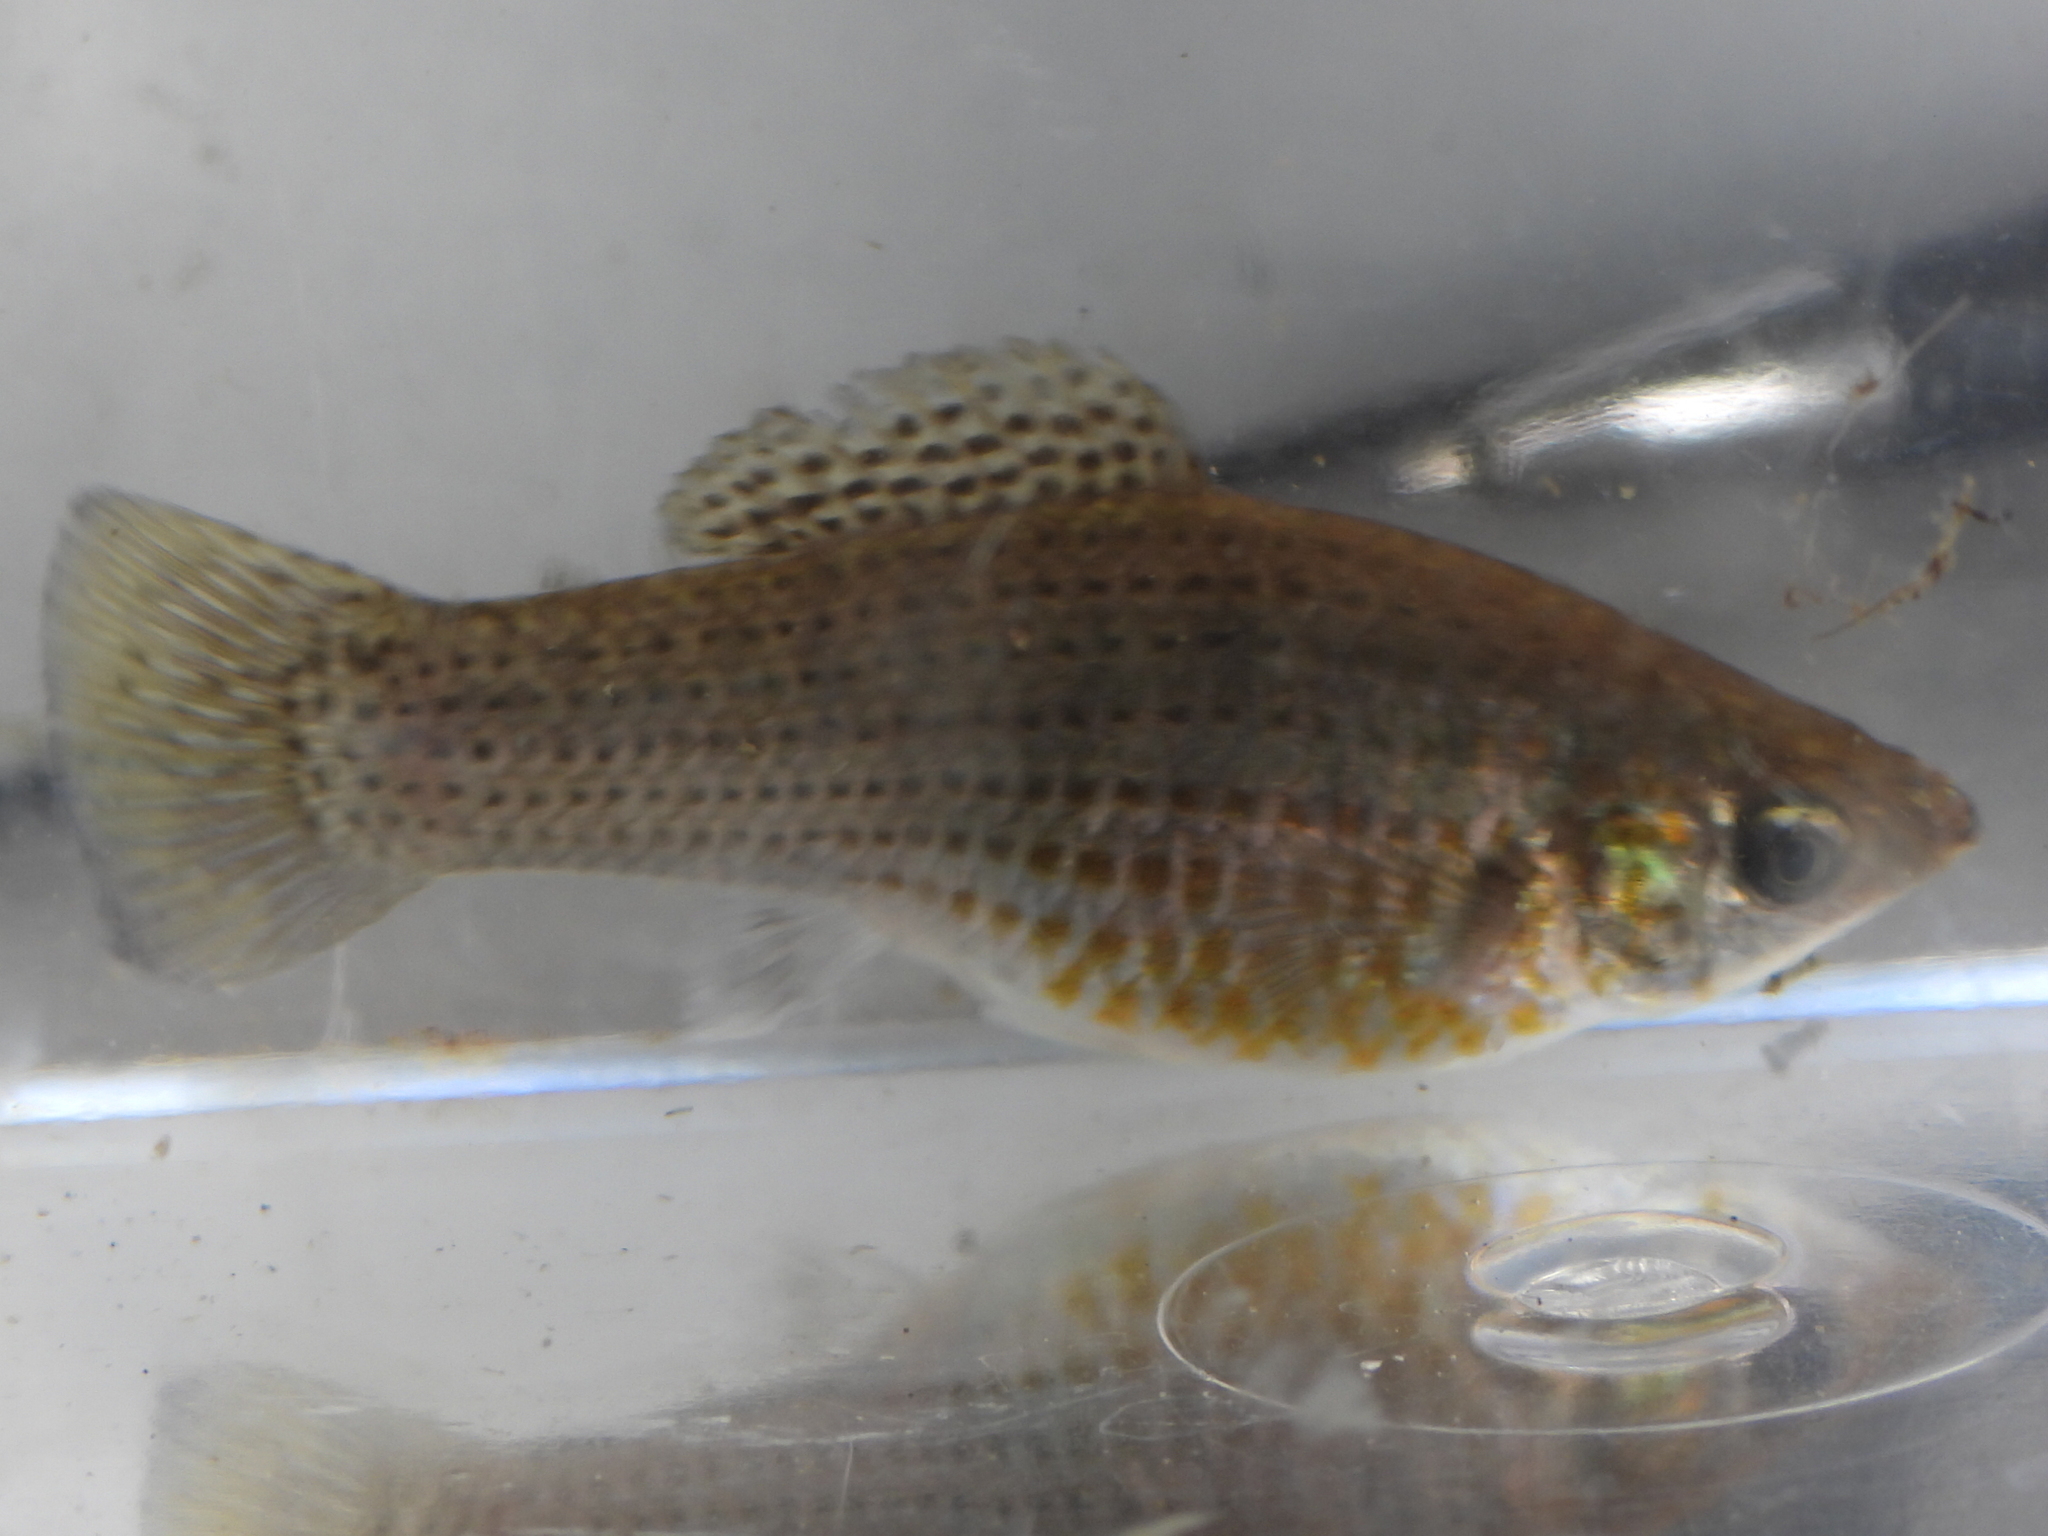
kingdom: Animalia
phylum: Chordata
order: Cyprinodontiformes
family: Poeciliidae
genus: Poecilia
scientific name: Poecilia latipinna
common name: Sailfin molly
